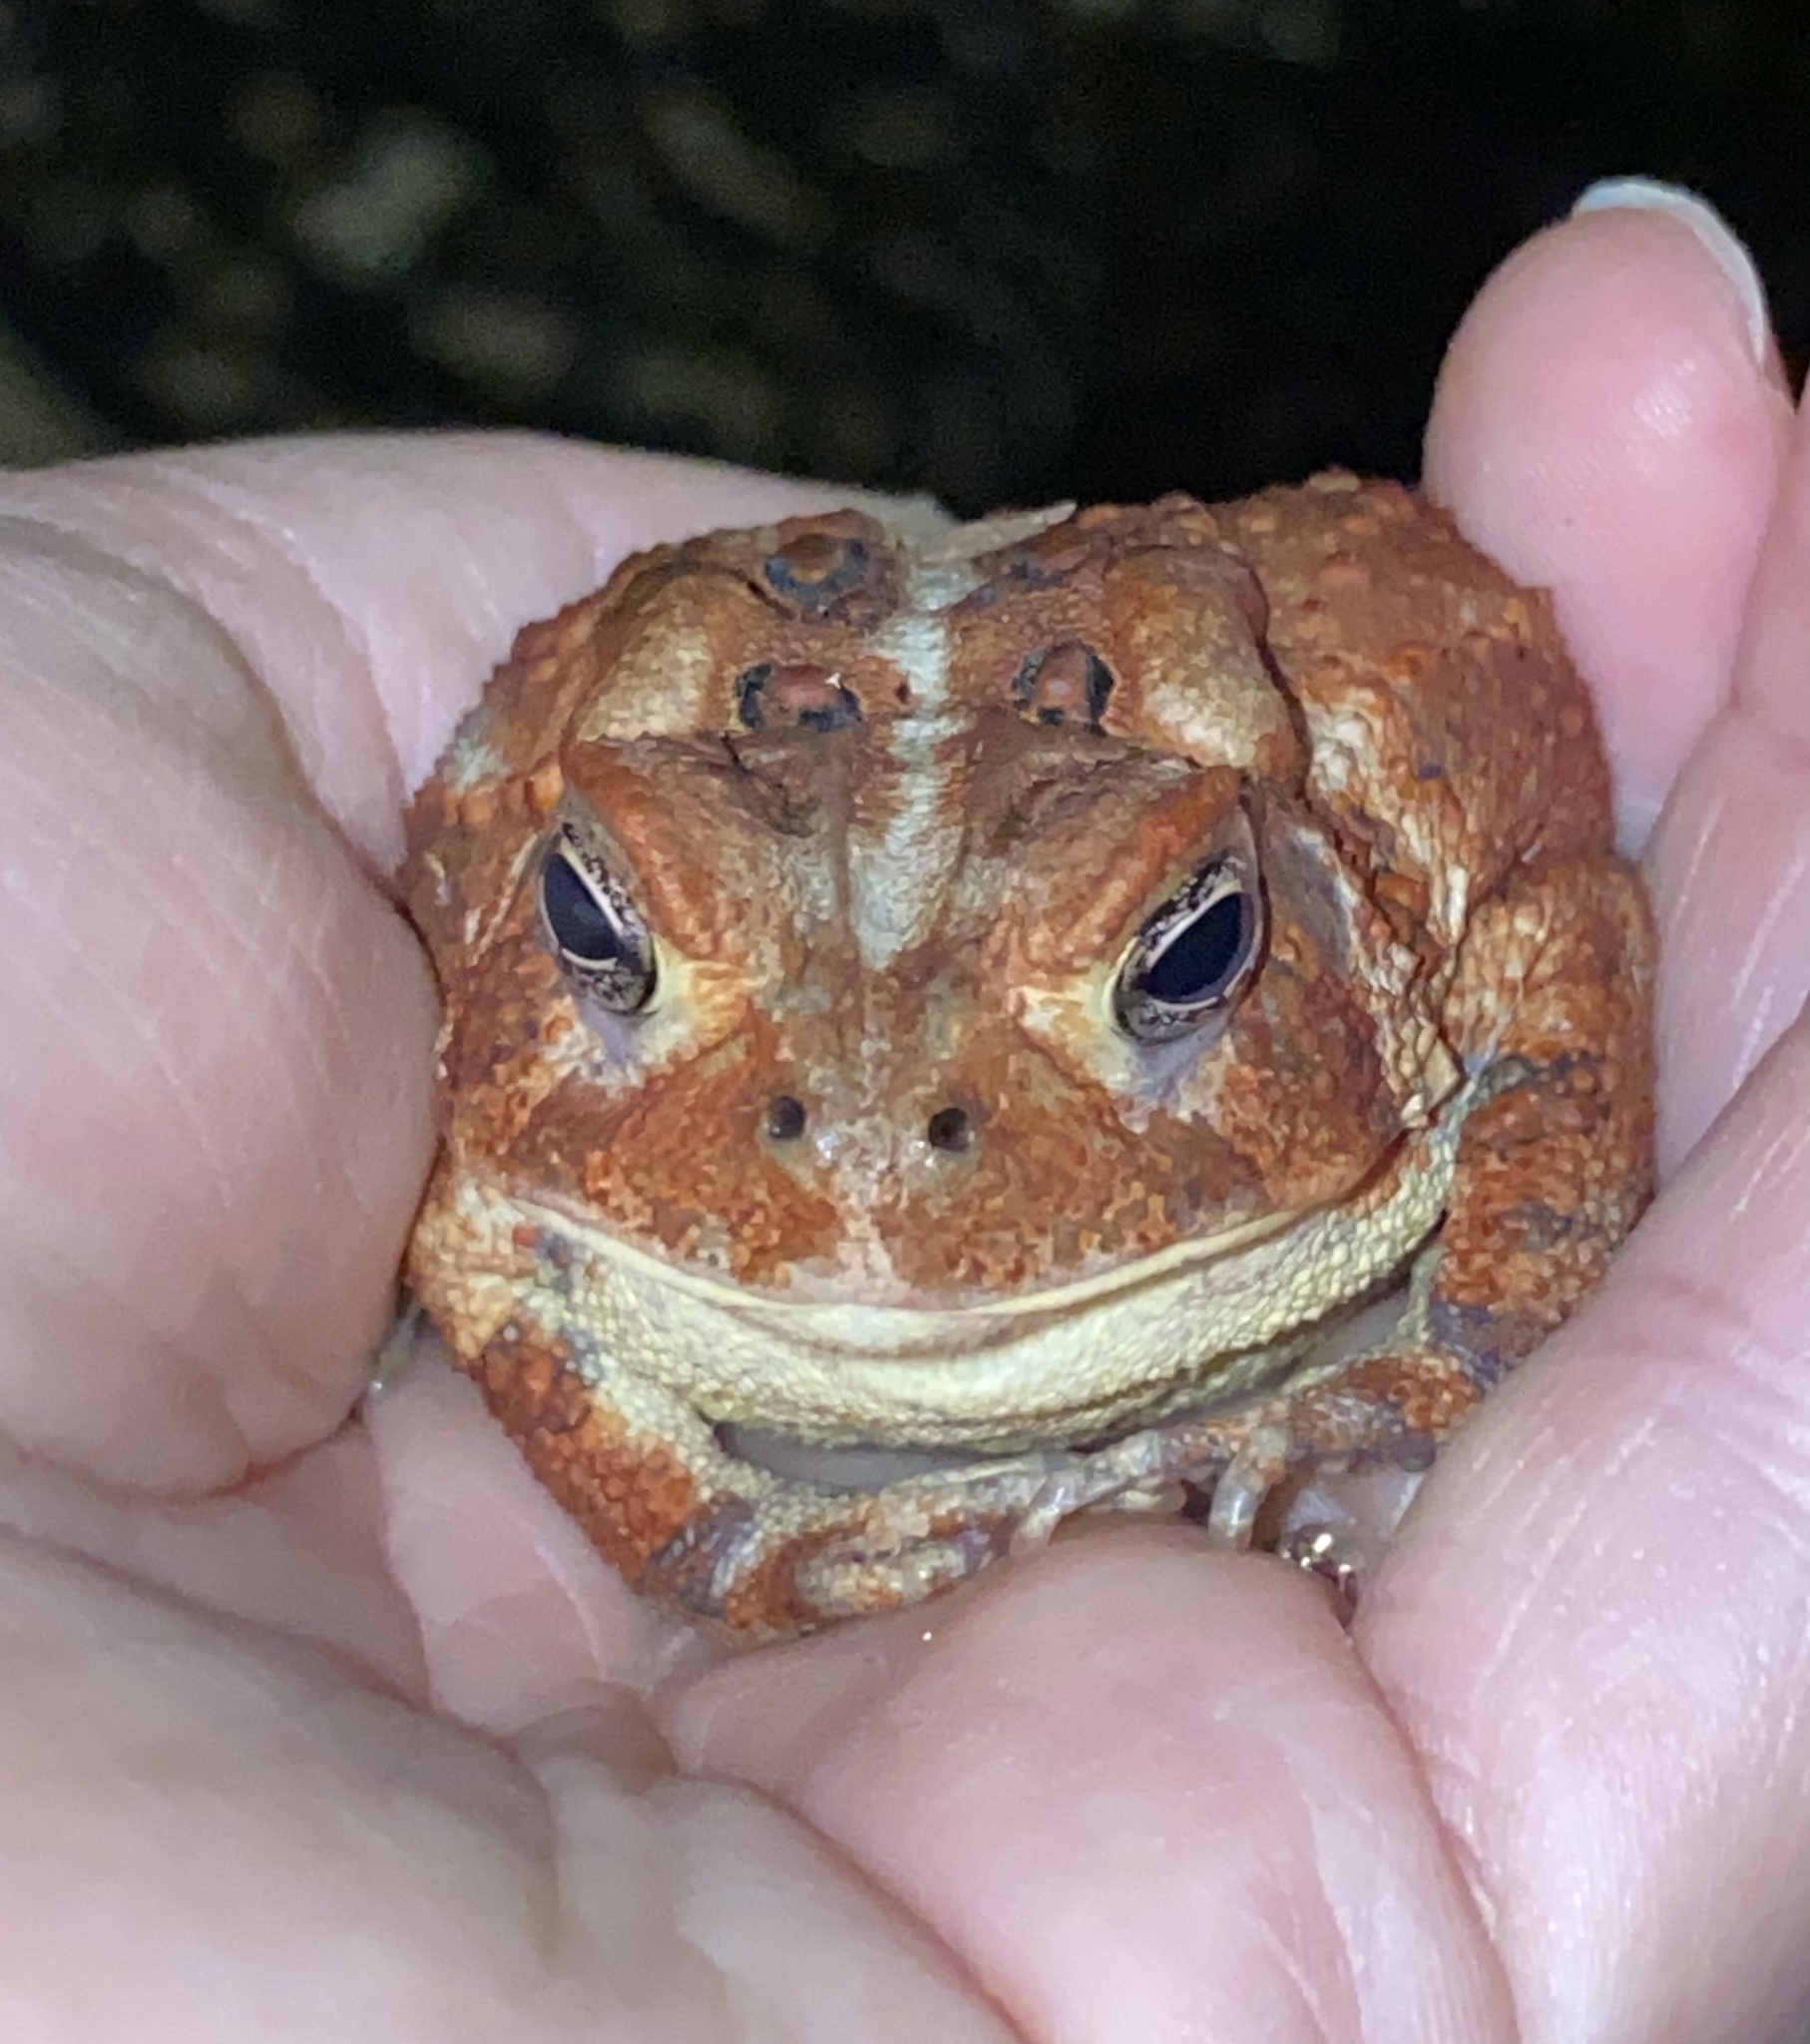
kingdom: Animalia
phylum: Chordata
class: Amphibia
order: Anura
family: Bufonidae
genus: Anaxyrus
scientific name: Anaxyrus americanus
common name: American toad
